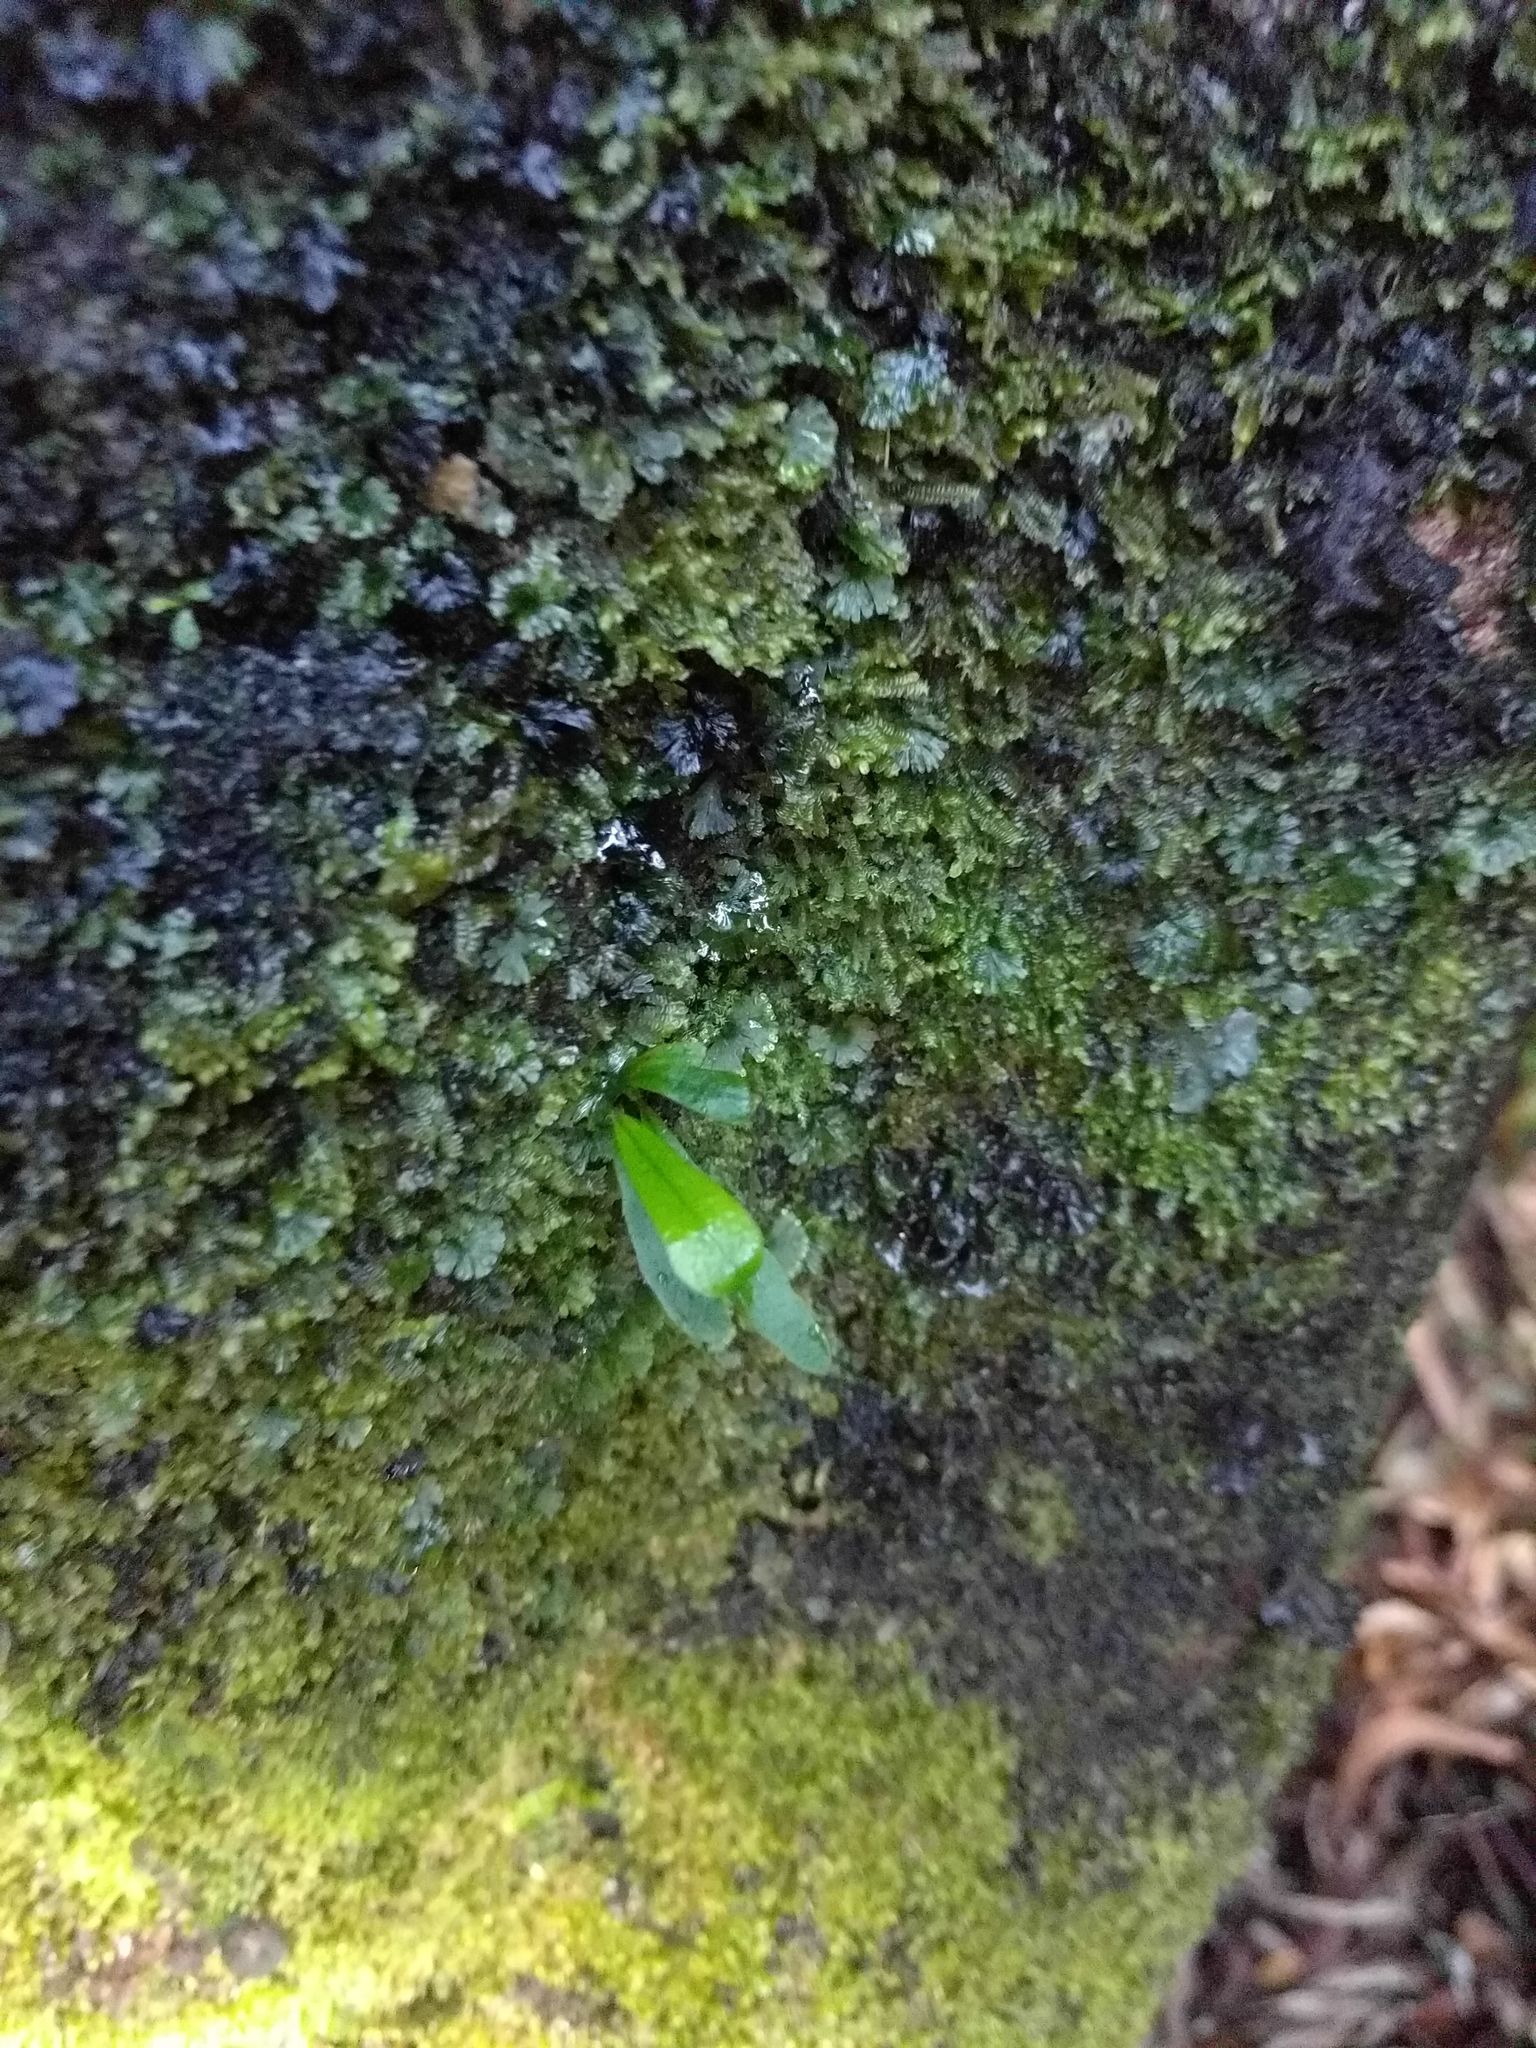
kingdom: Plantae
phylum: Tracheophyta
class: Polypodiopsida
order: Polypodiales
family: Polypodiaceae
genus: Lepisorus
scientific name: Lepisorus thunbergianus
